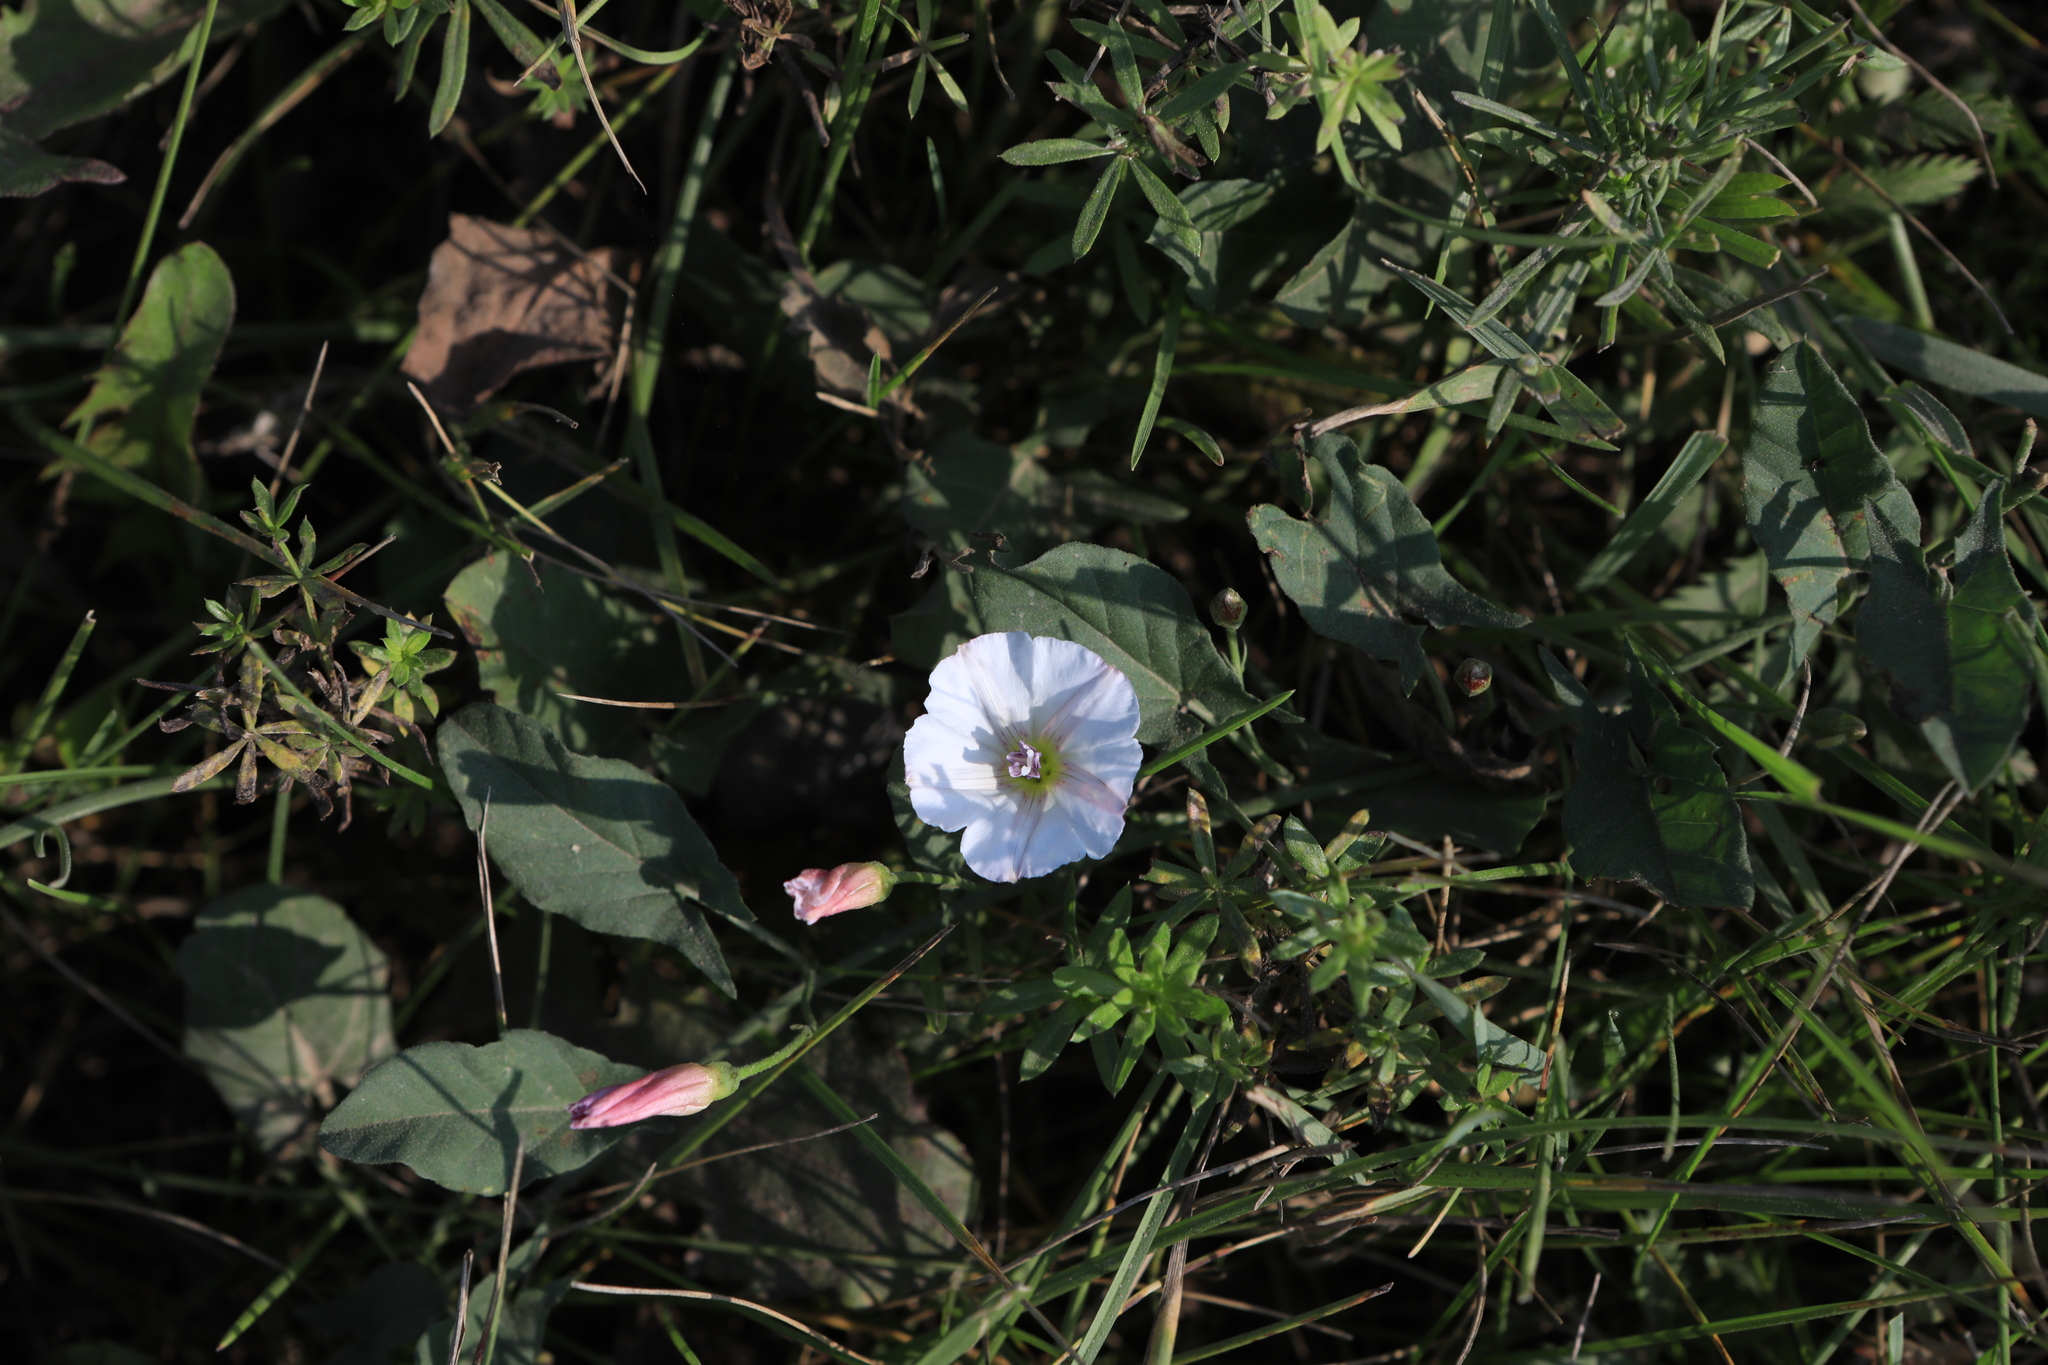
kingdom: Plantae
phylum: Tracheophyta
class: Magnoliopsida
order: Solanales
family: Convolvulaceae
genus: Convolvulus
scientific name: Convolvulus arvensis
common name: Field bindweed
